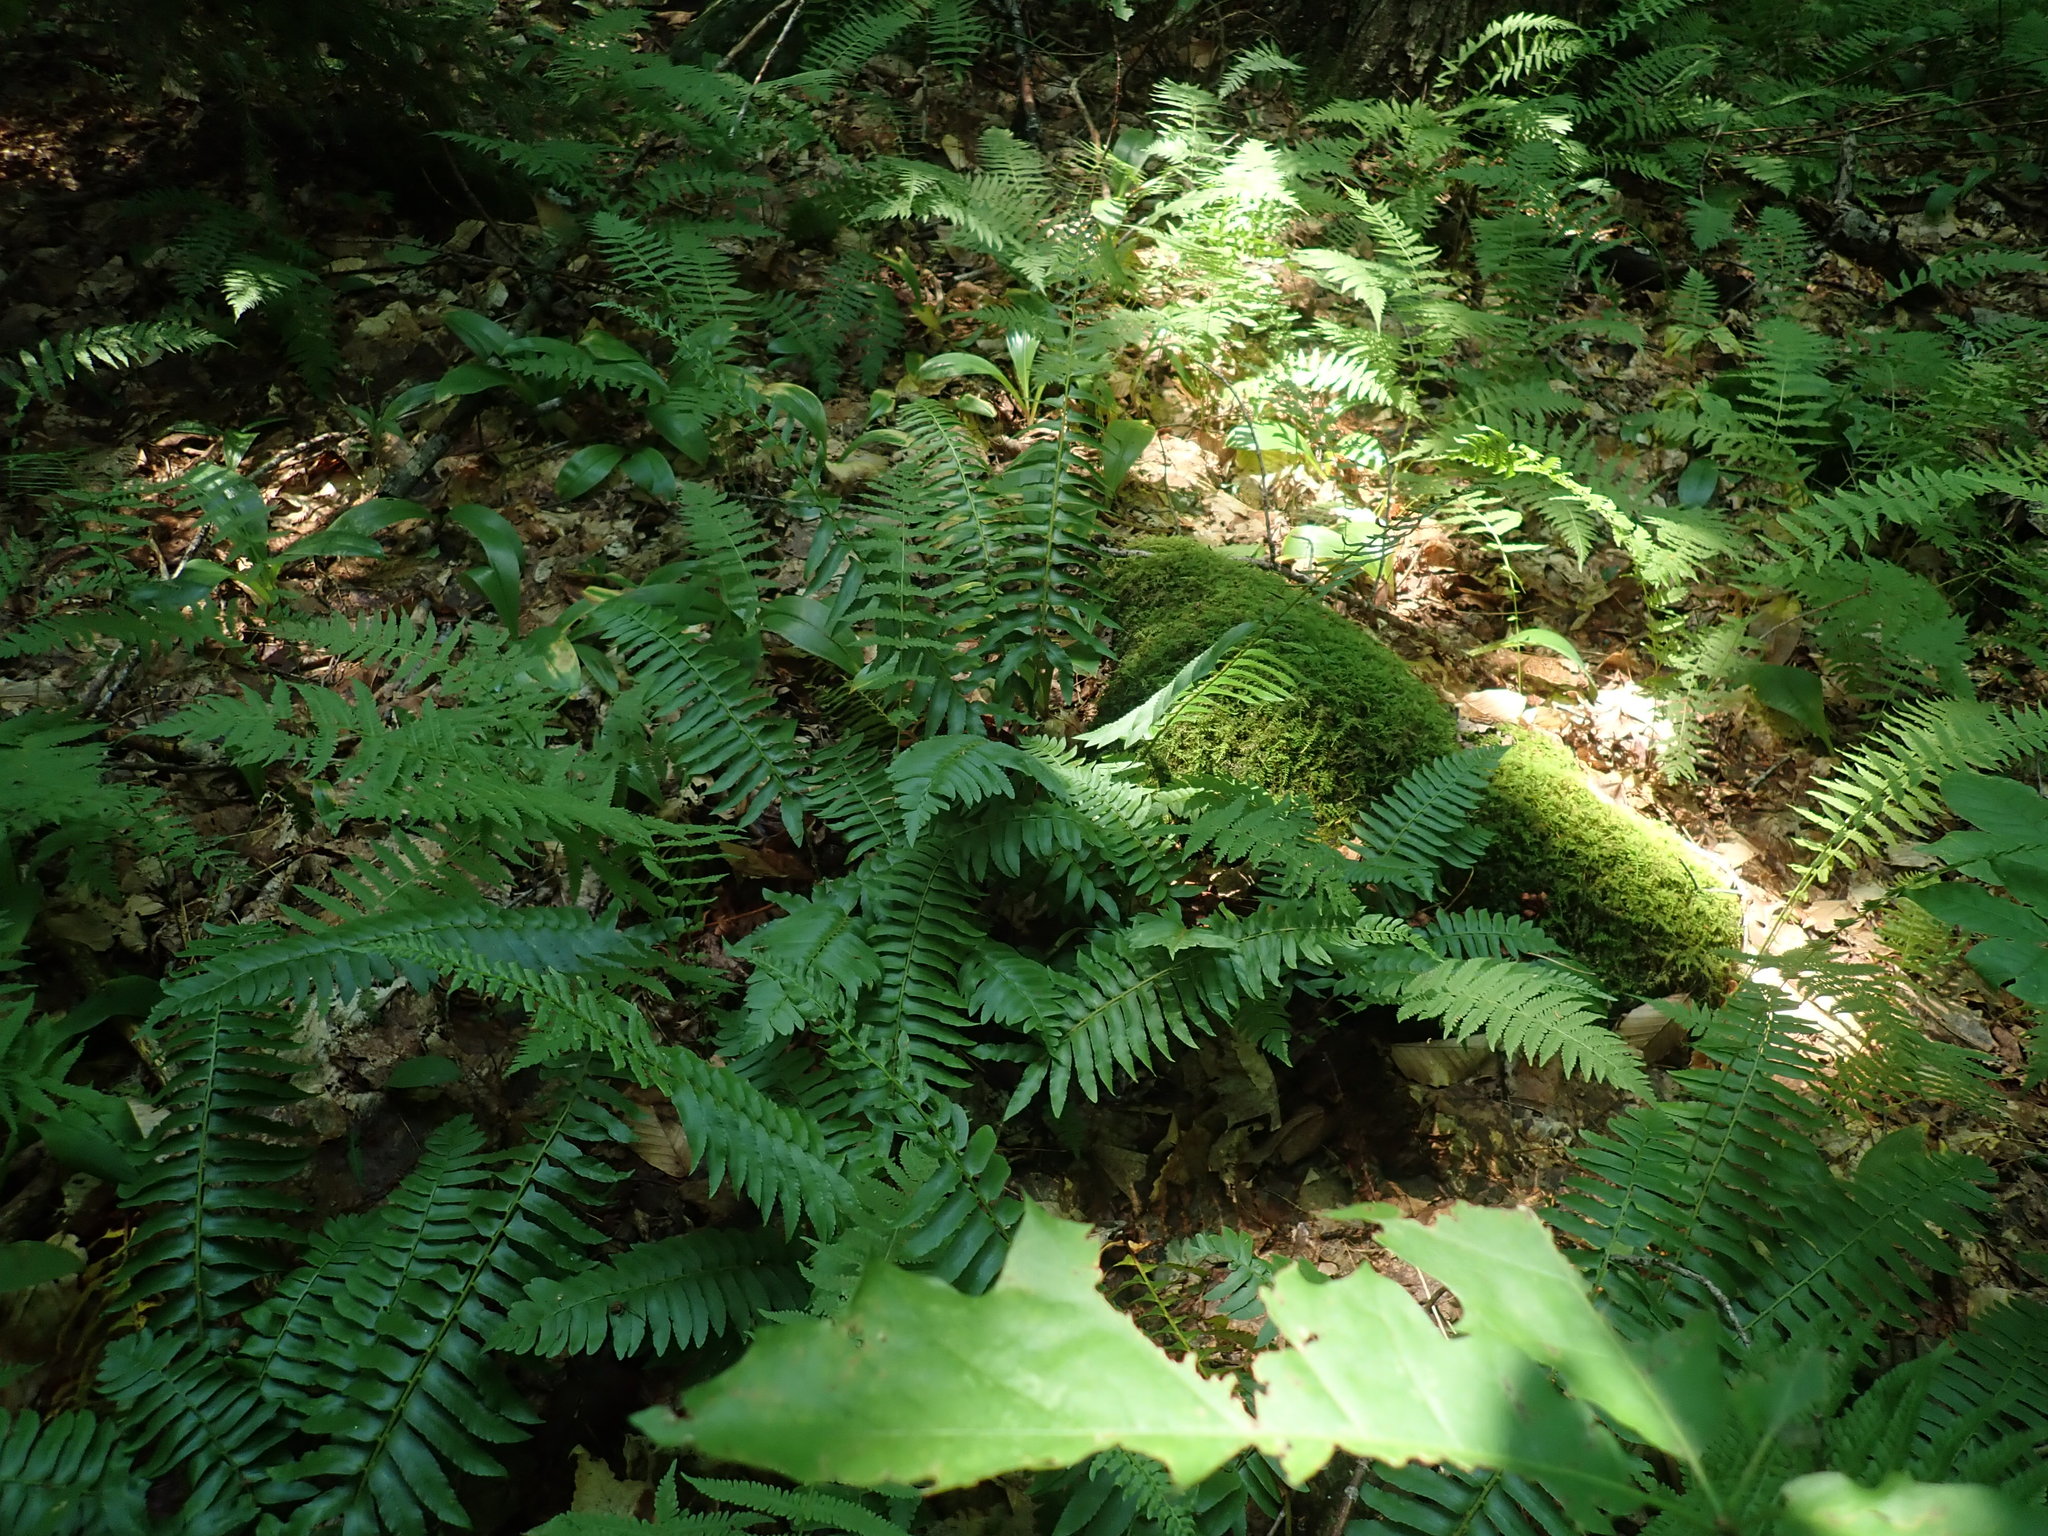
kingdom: Plantae
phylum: Tracheophyta
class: Polypodiopsida
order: Polypodiales
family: Dryopteridaceae
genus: Polystichum
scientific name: Polystichum acrostichoides
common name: Christmas fern
